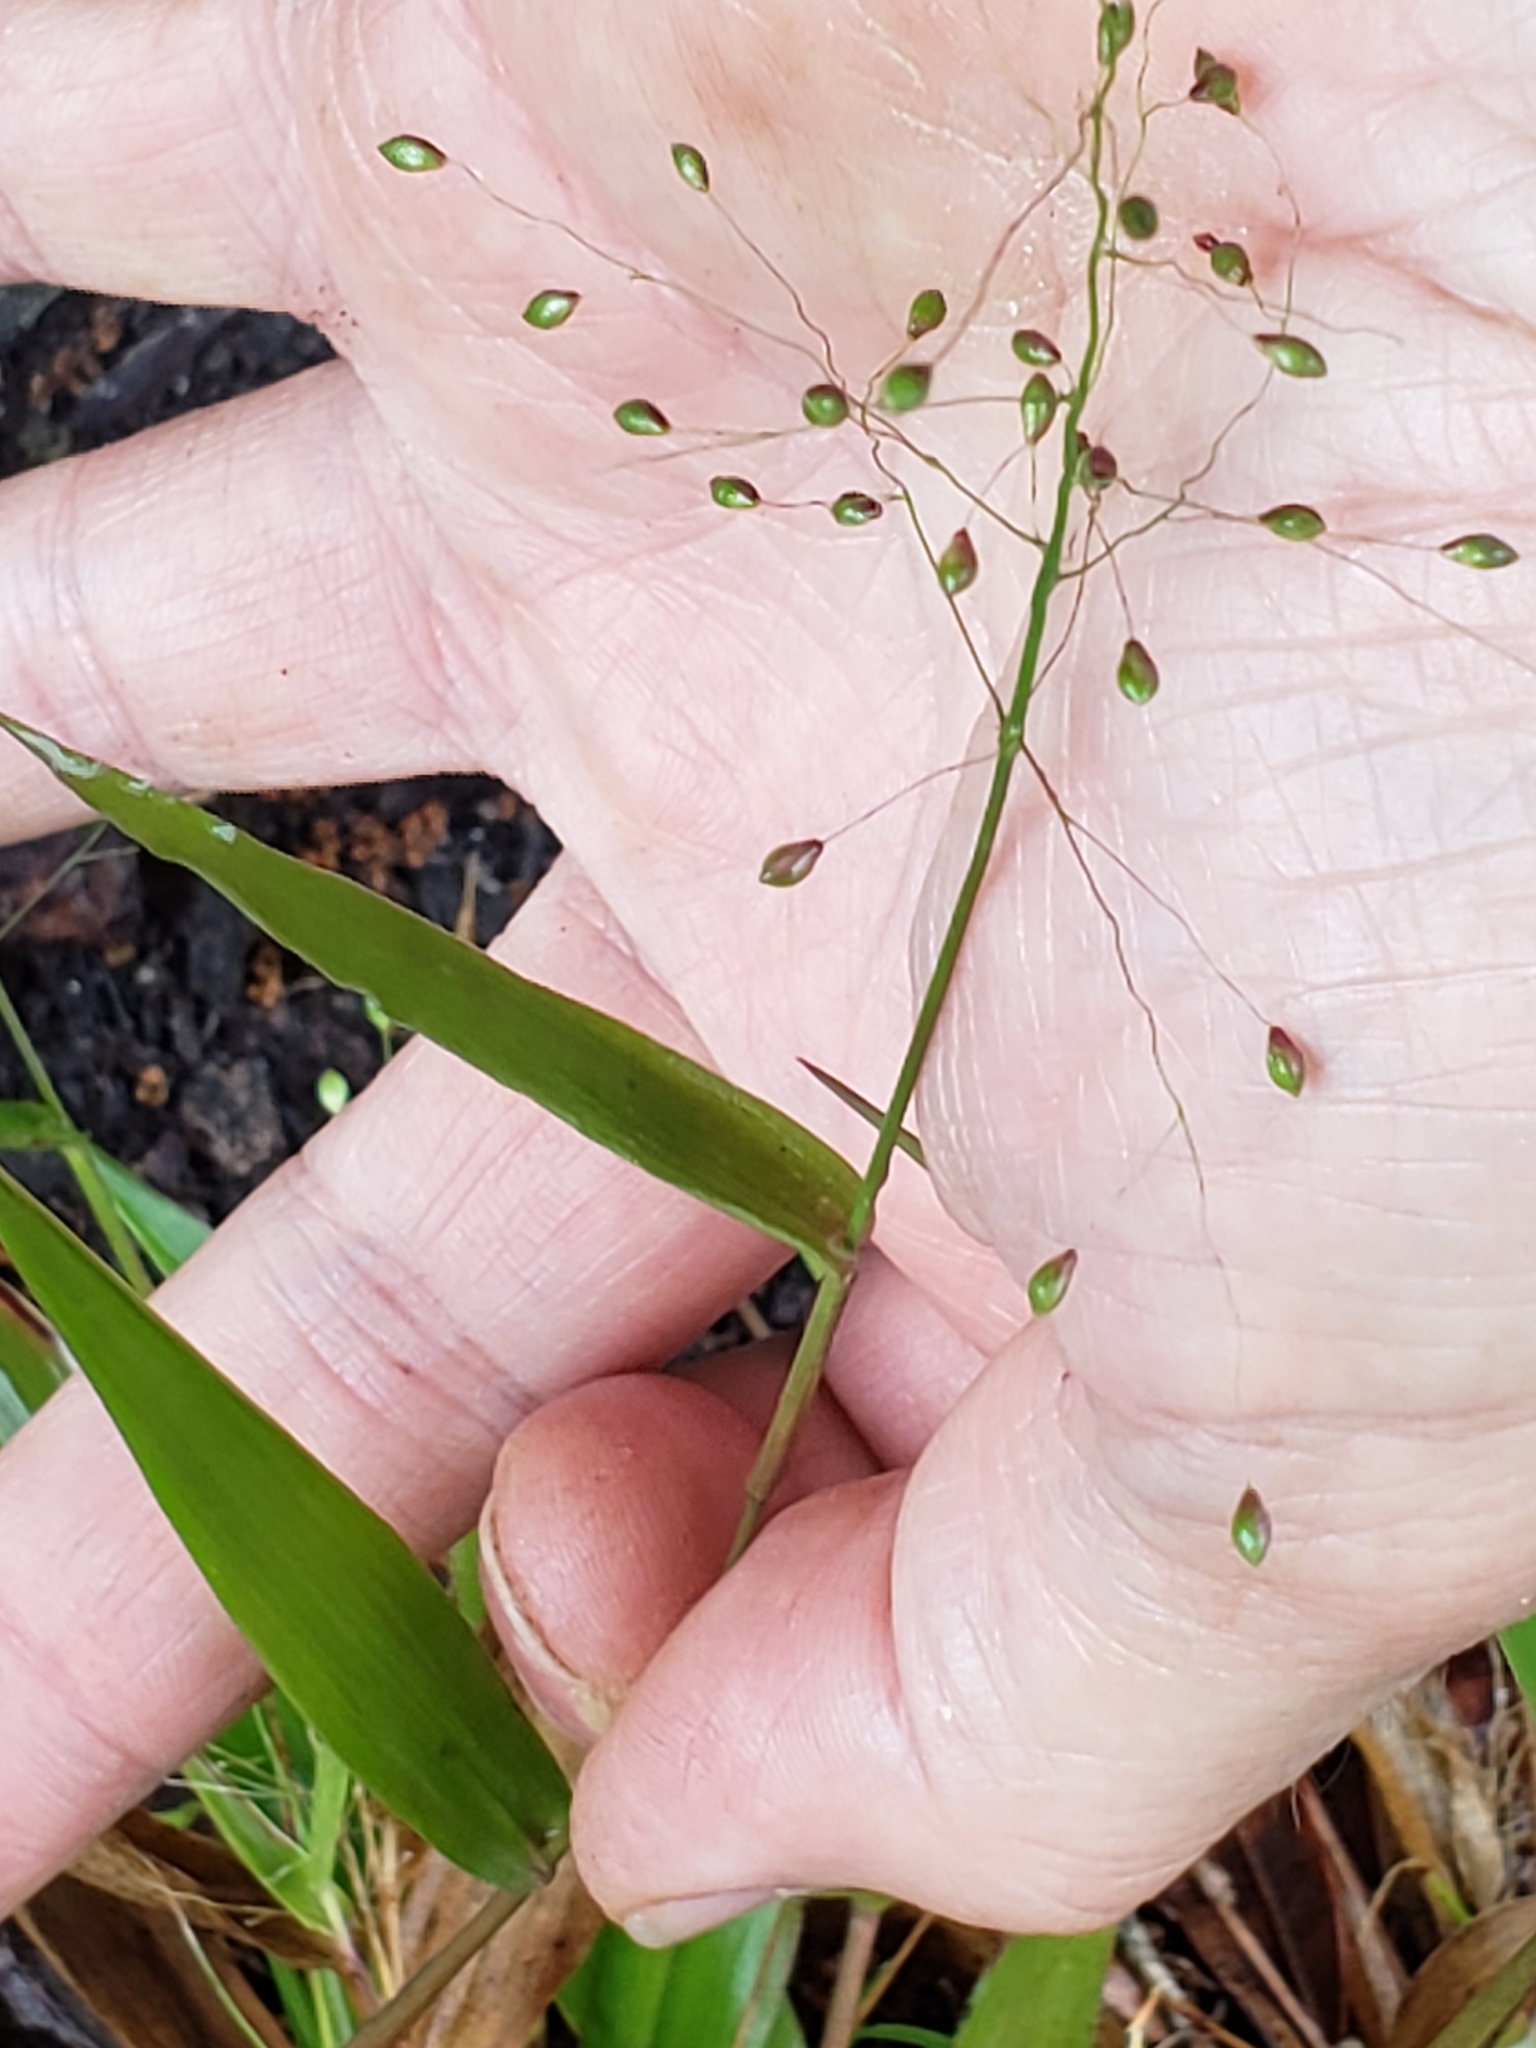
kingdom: Plantae
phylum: Tracheophyta
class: Liliopsida
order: Poales
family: Poaceae
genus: Dichanthelium
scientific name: Dichanthelium commutatum
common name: Variable witchgrass
